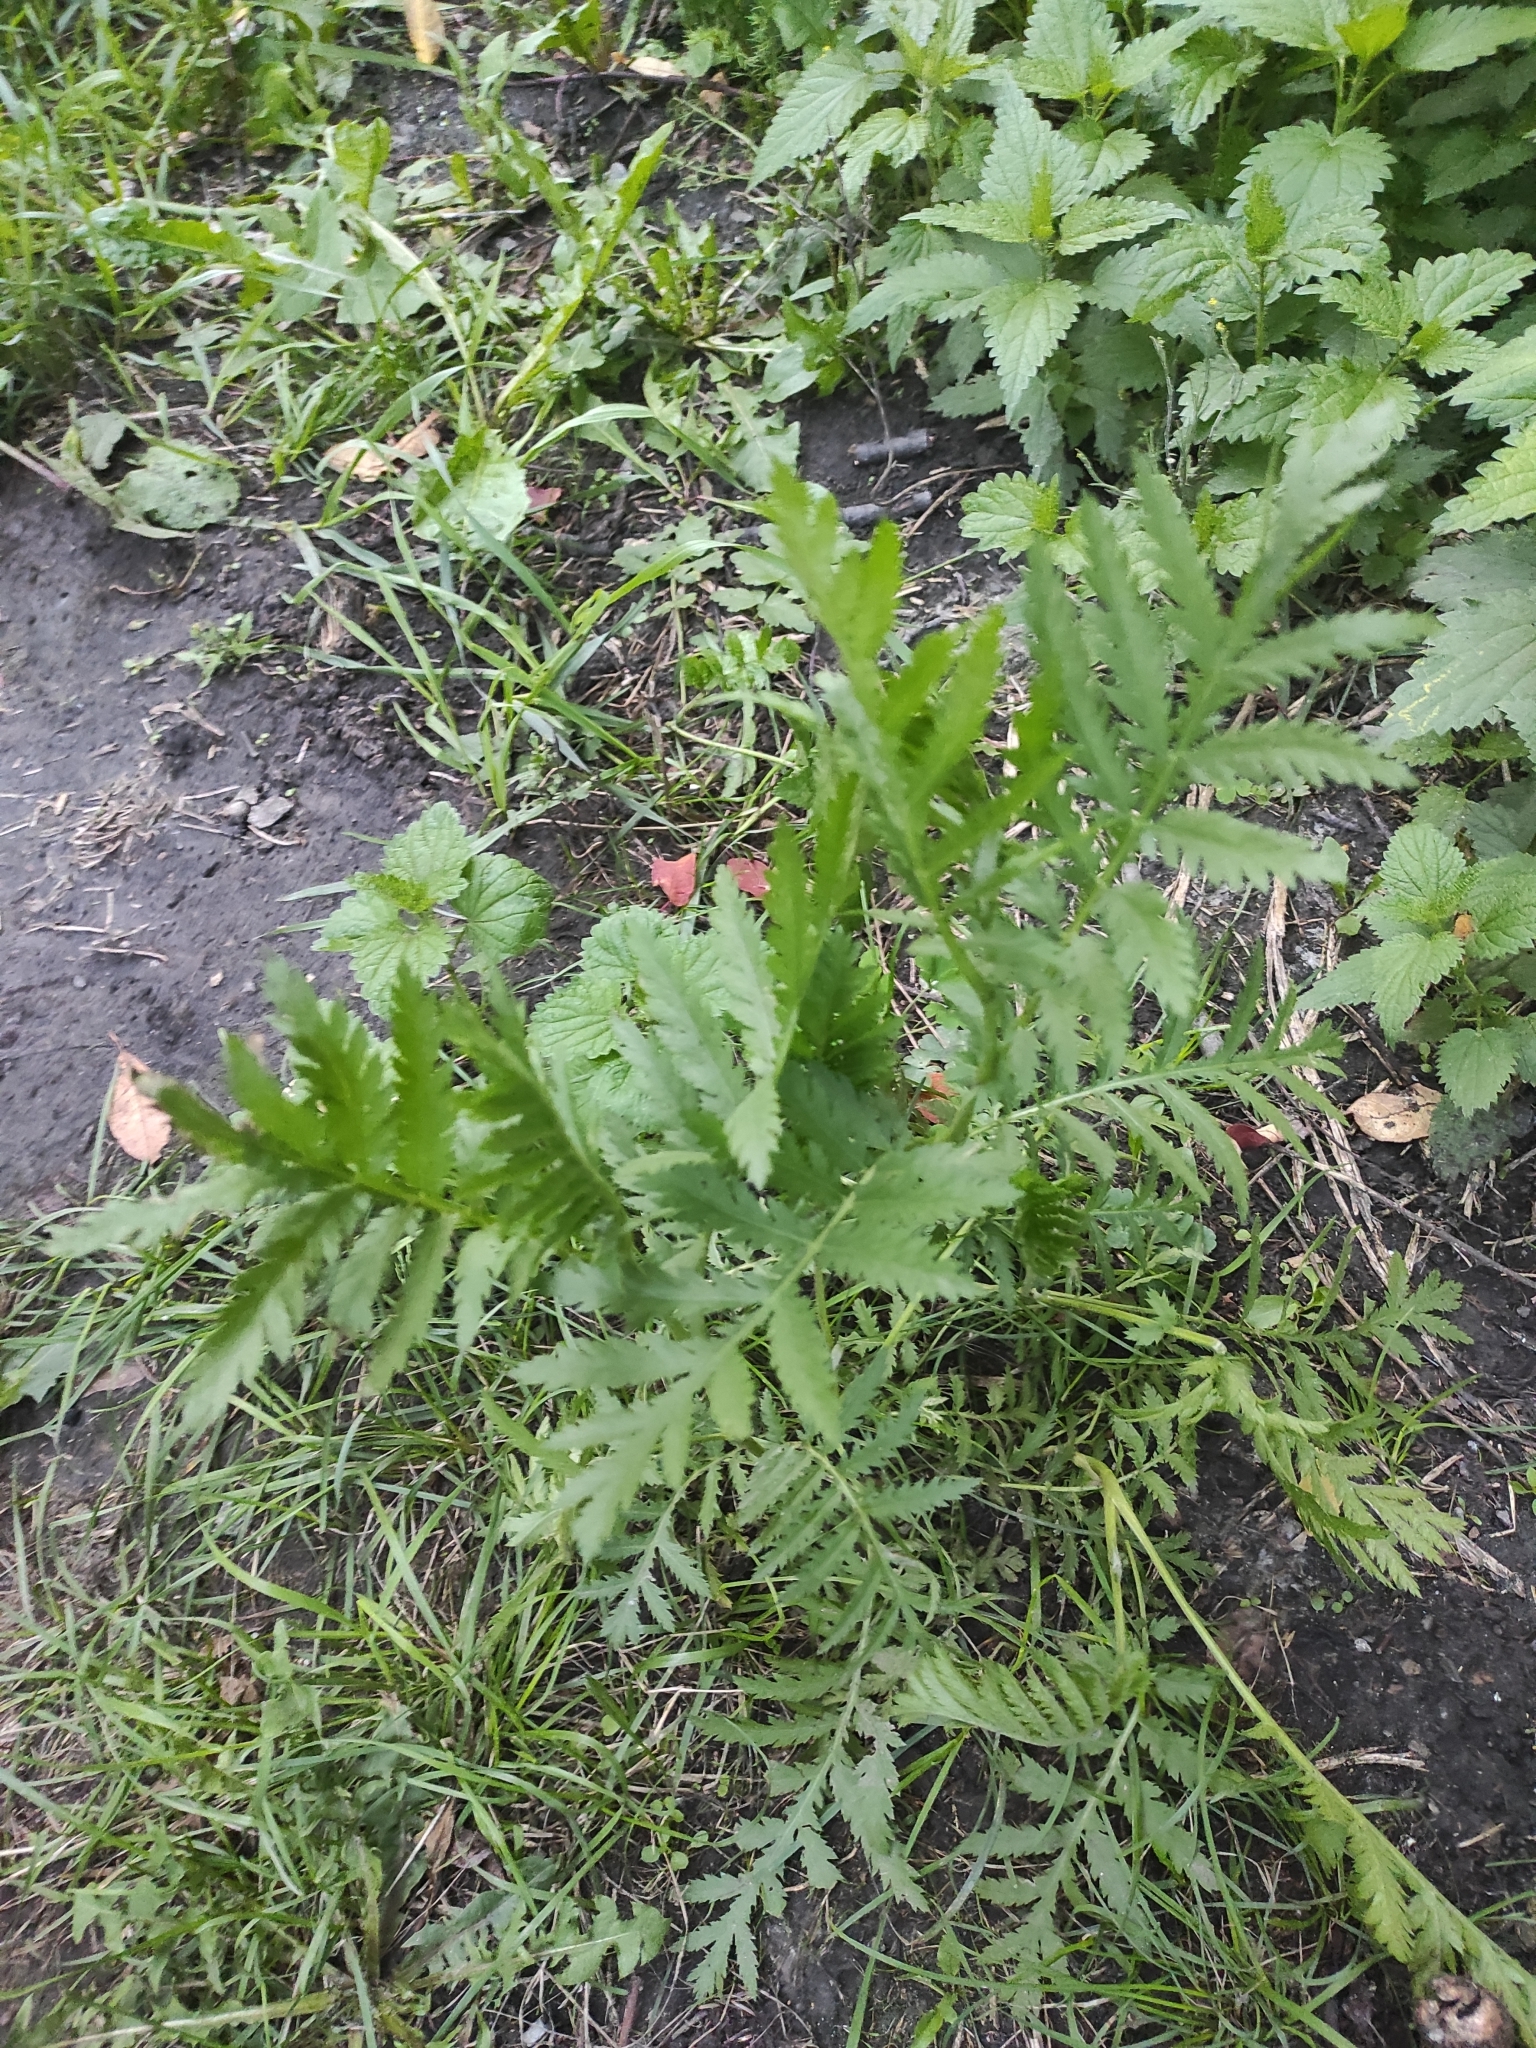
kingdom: Plantae
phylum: Tracheophyta
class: Magnoliopsida
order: Asterales
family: Asteraceae
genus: Tanacetum
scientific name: Tanacetum vulgare
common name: Common tansy
